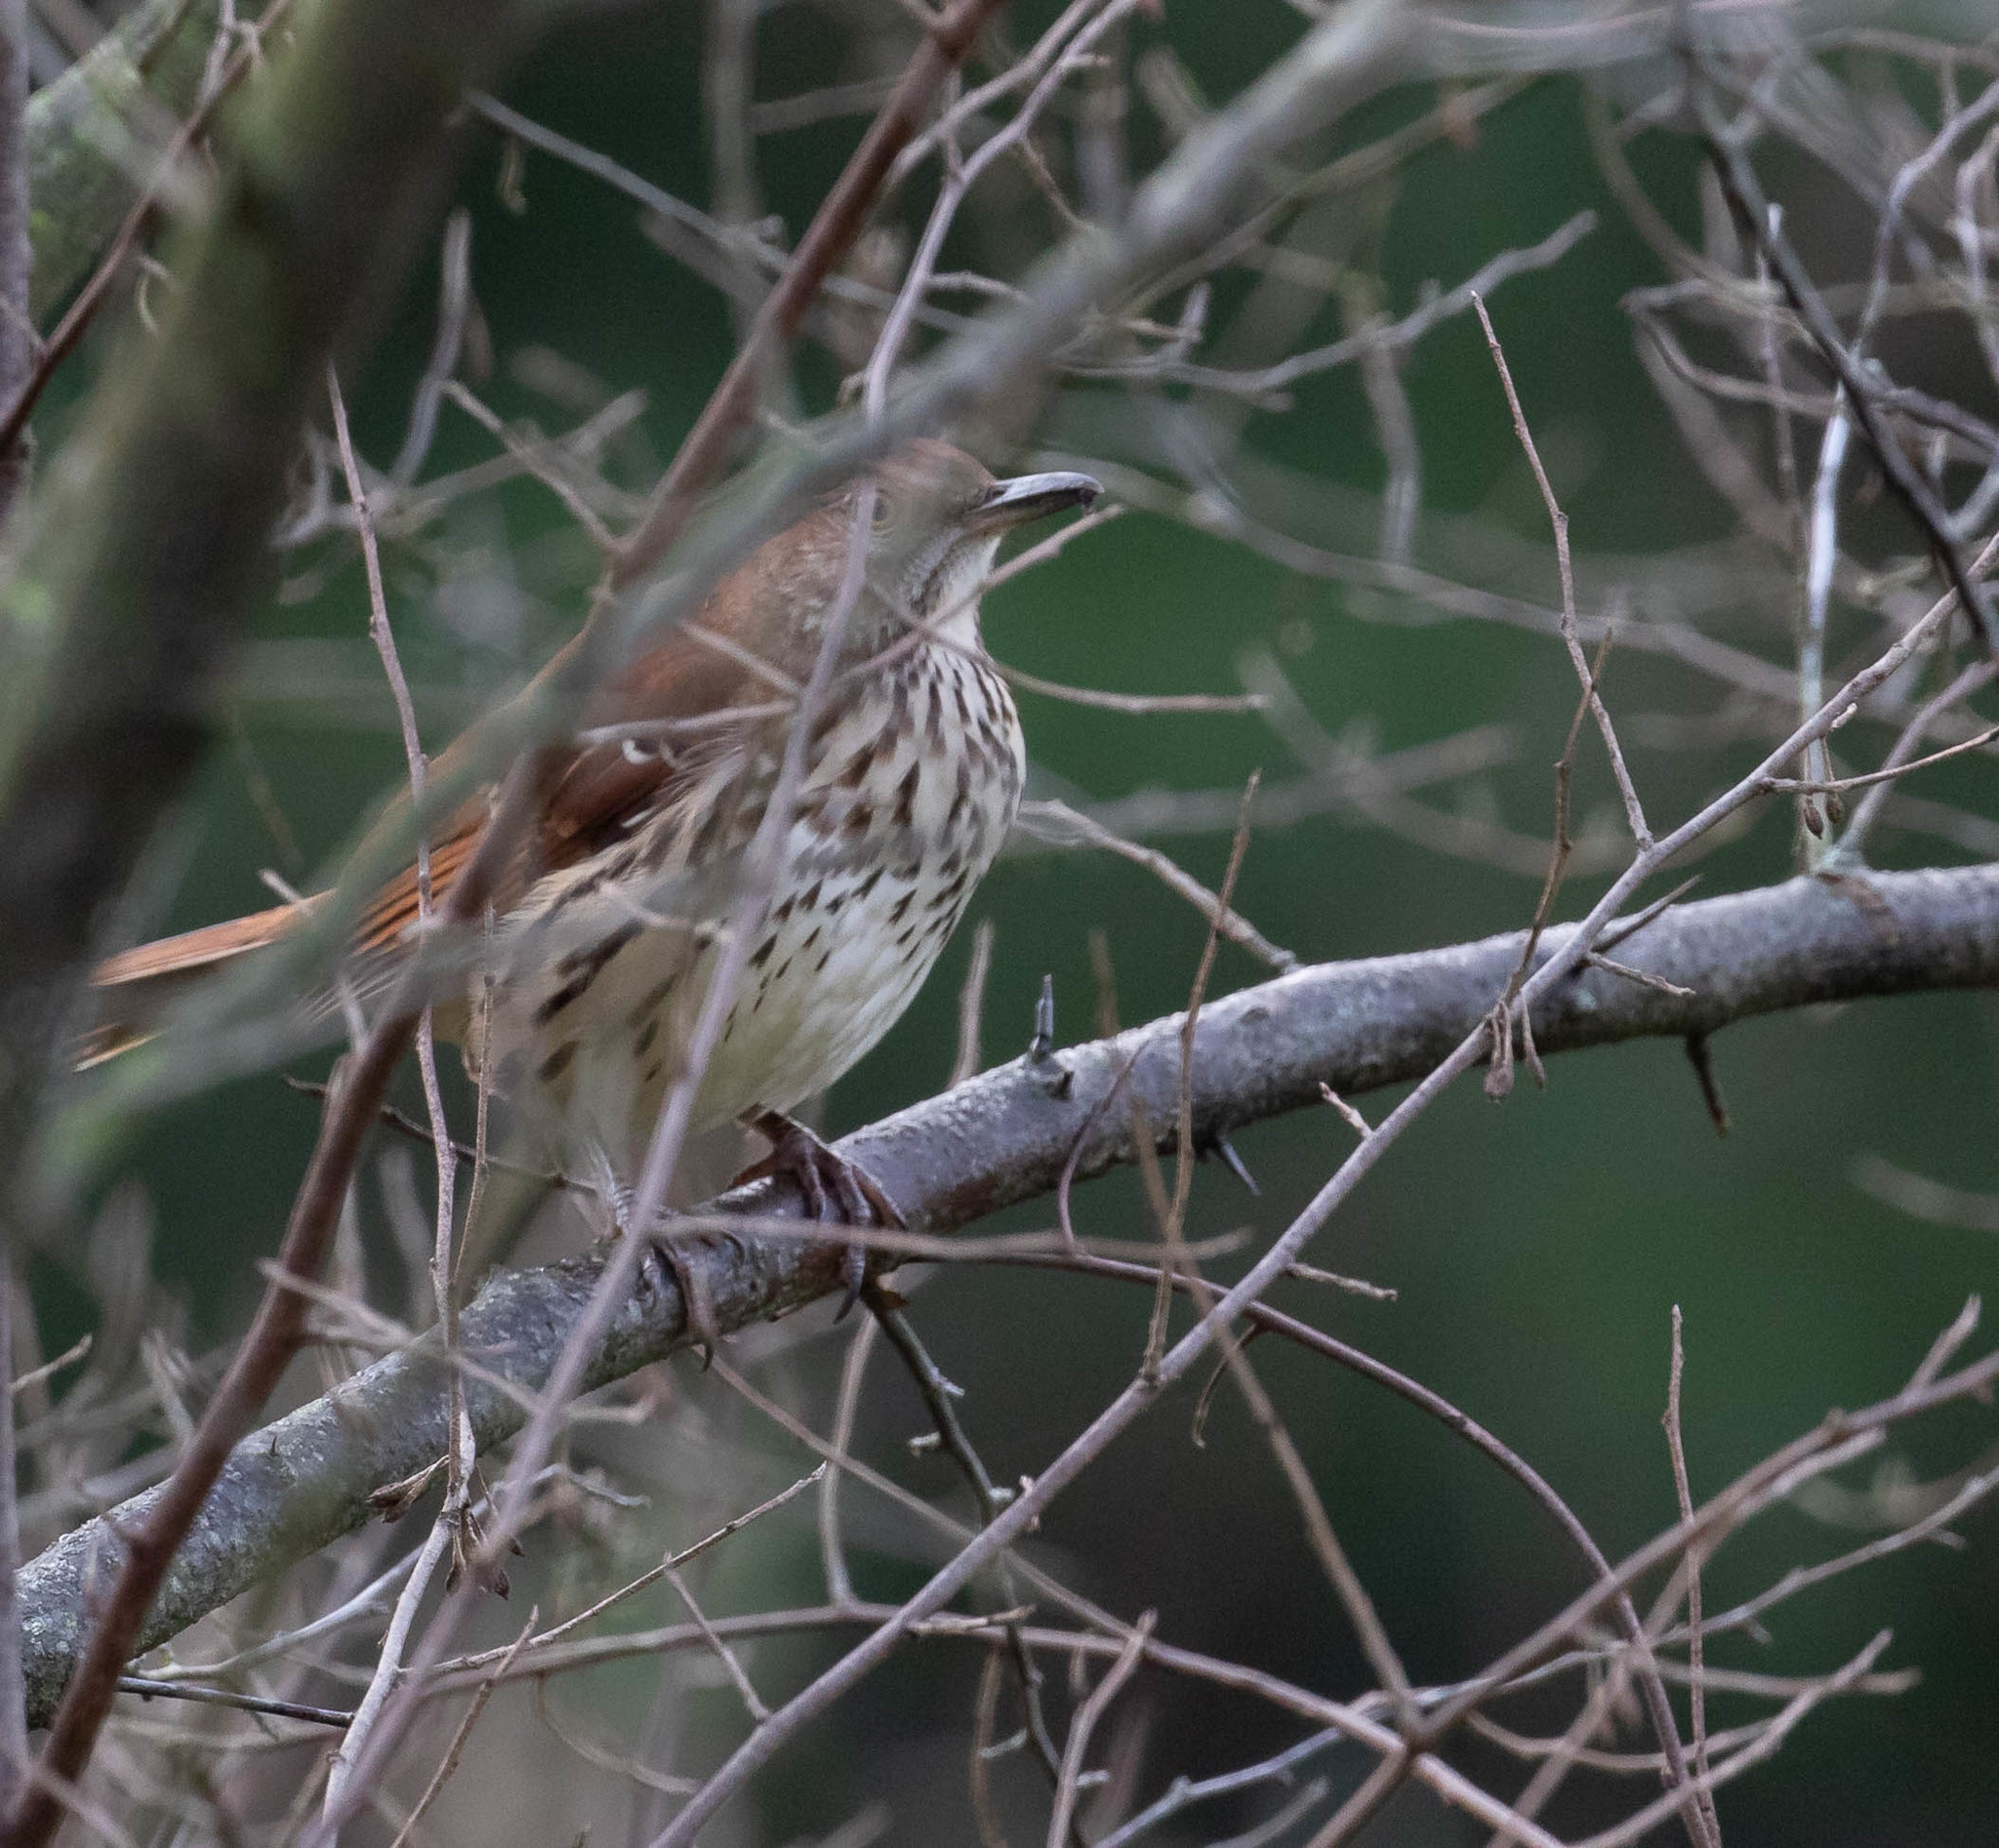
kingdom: Animalia
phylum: Chordata
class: Aves
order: Passeriformes
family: Mimidae
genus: Toxostoma
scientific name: Toxostoma rufum
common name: Brown thrasher
